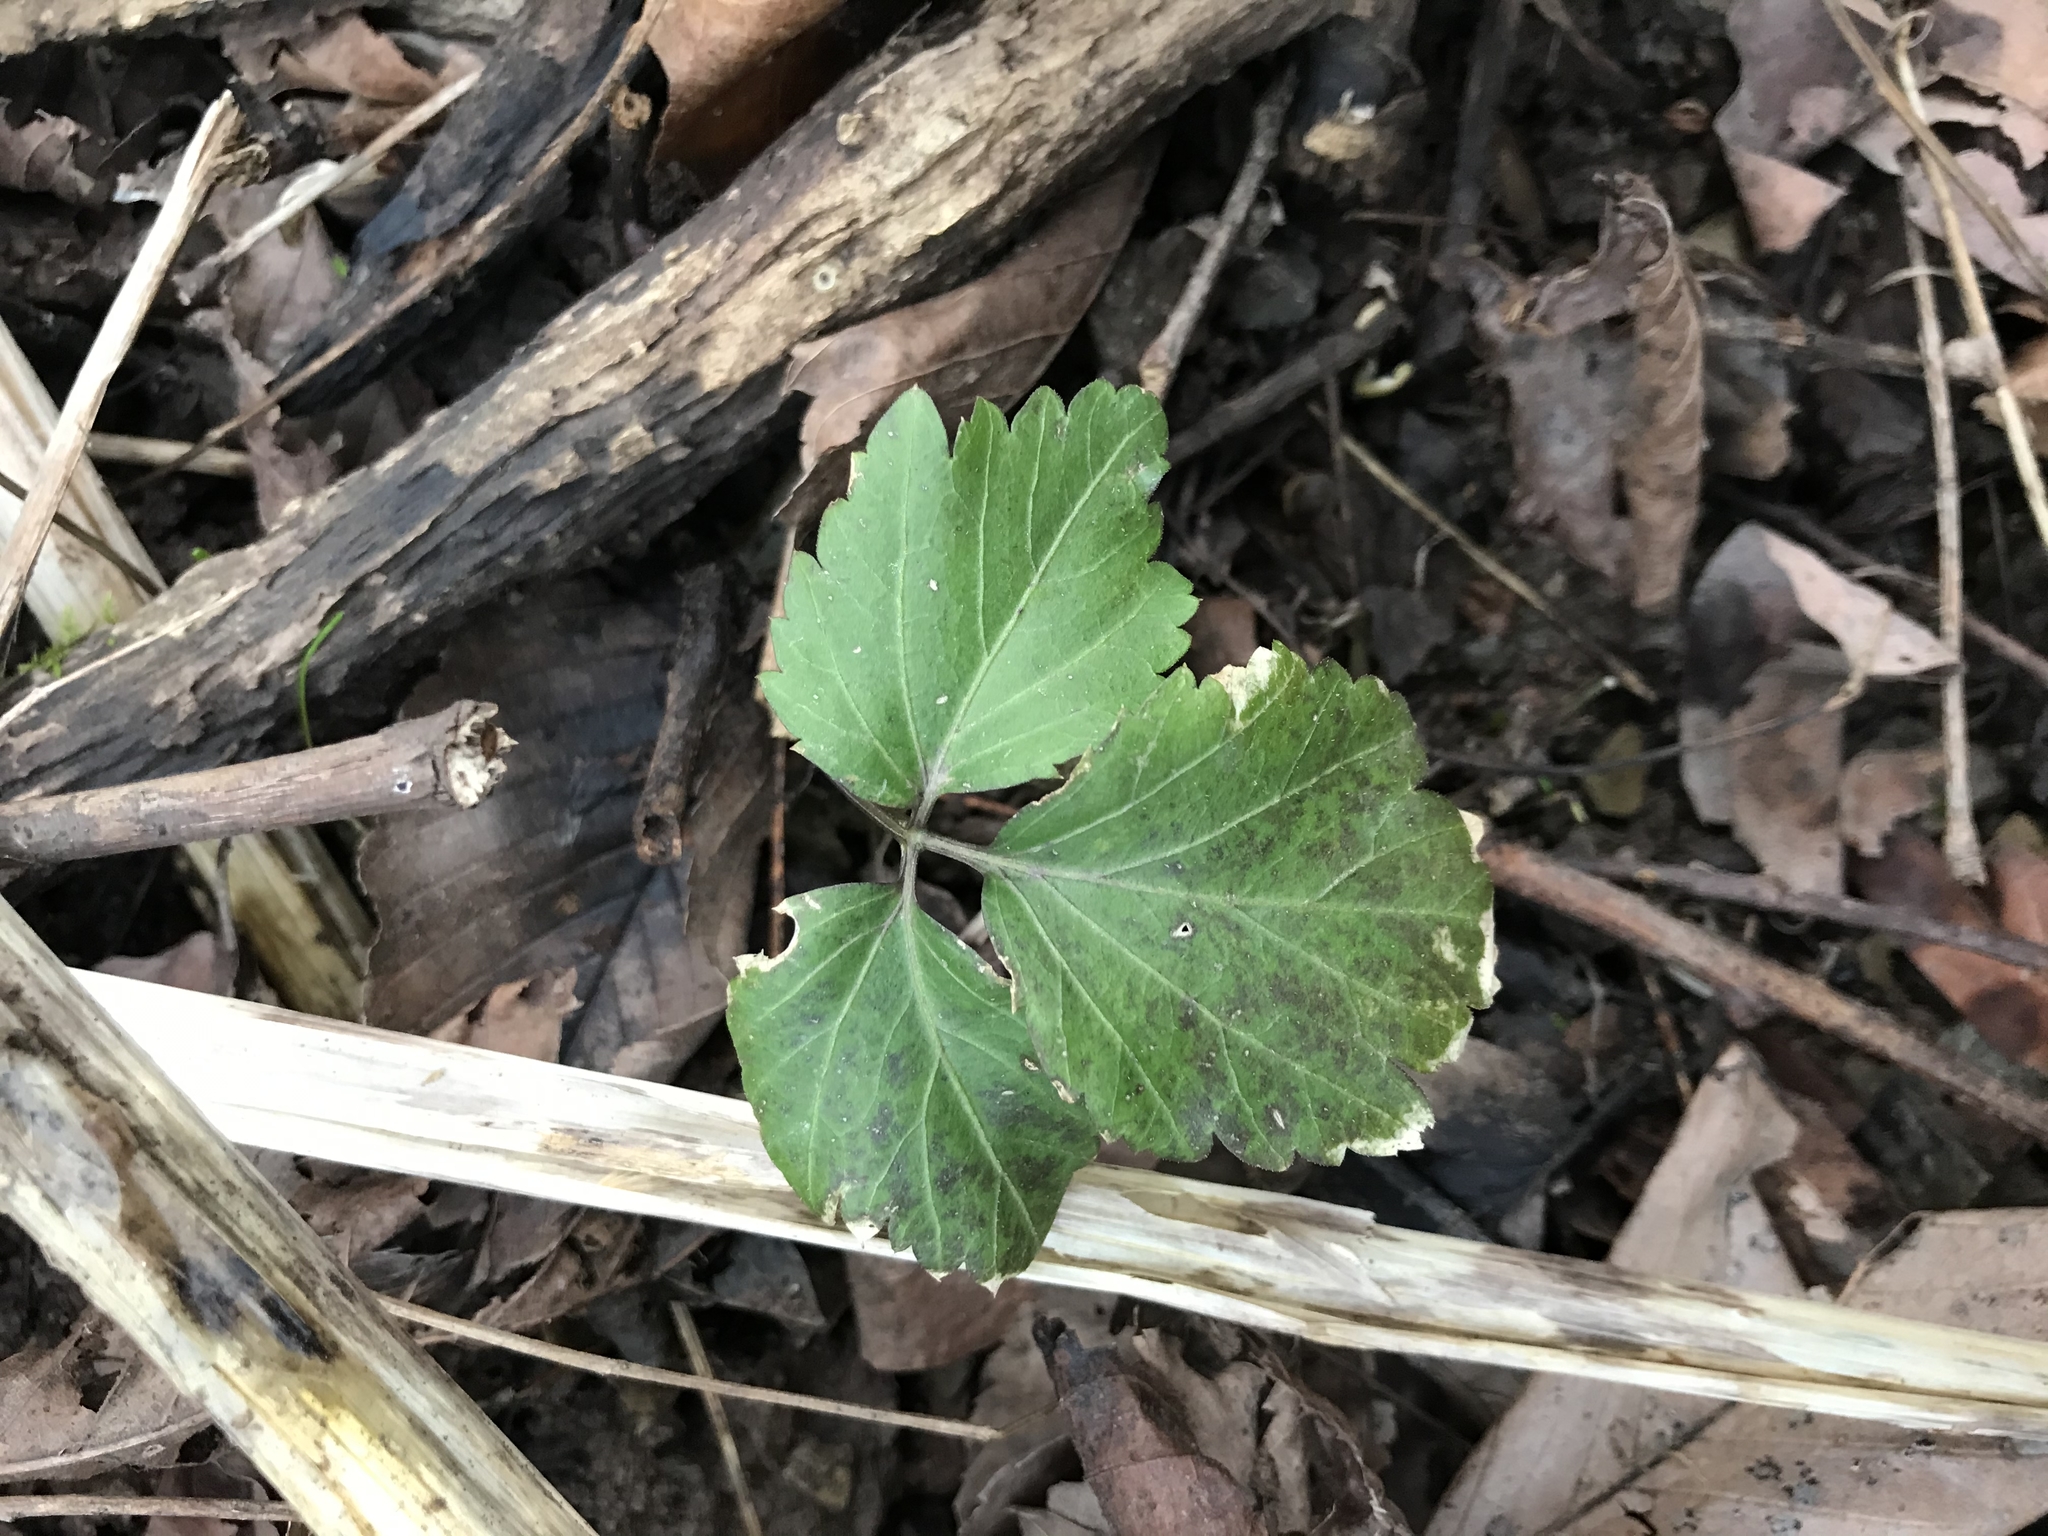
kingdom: Plantae
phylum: Tracheophyta
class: Magnoliopsida
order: Brassicales
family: Brassicaceae
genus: Cardamine
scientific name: Cardamine diphylla
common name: Broad-leaved toothwort
